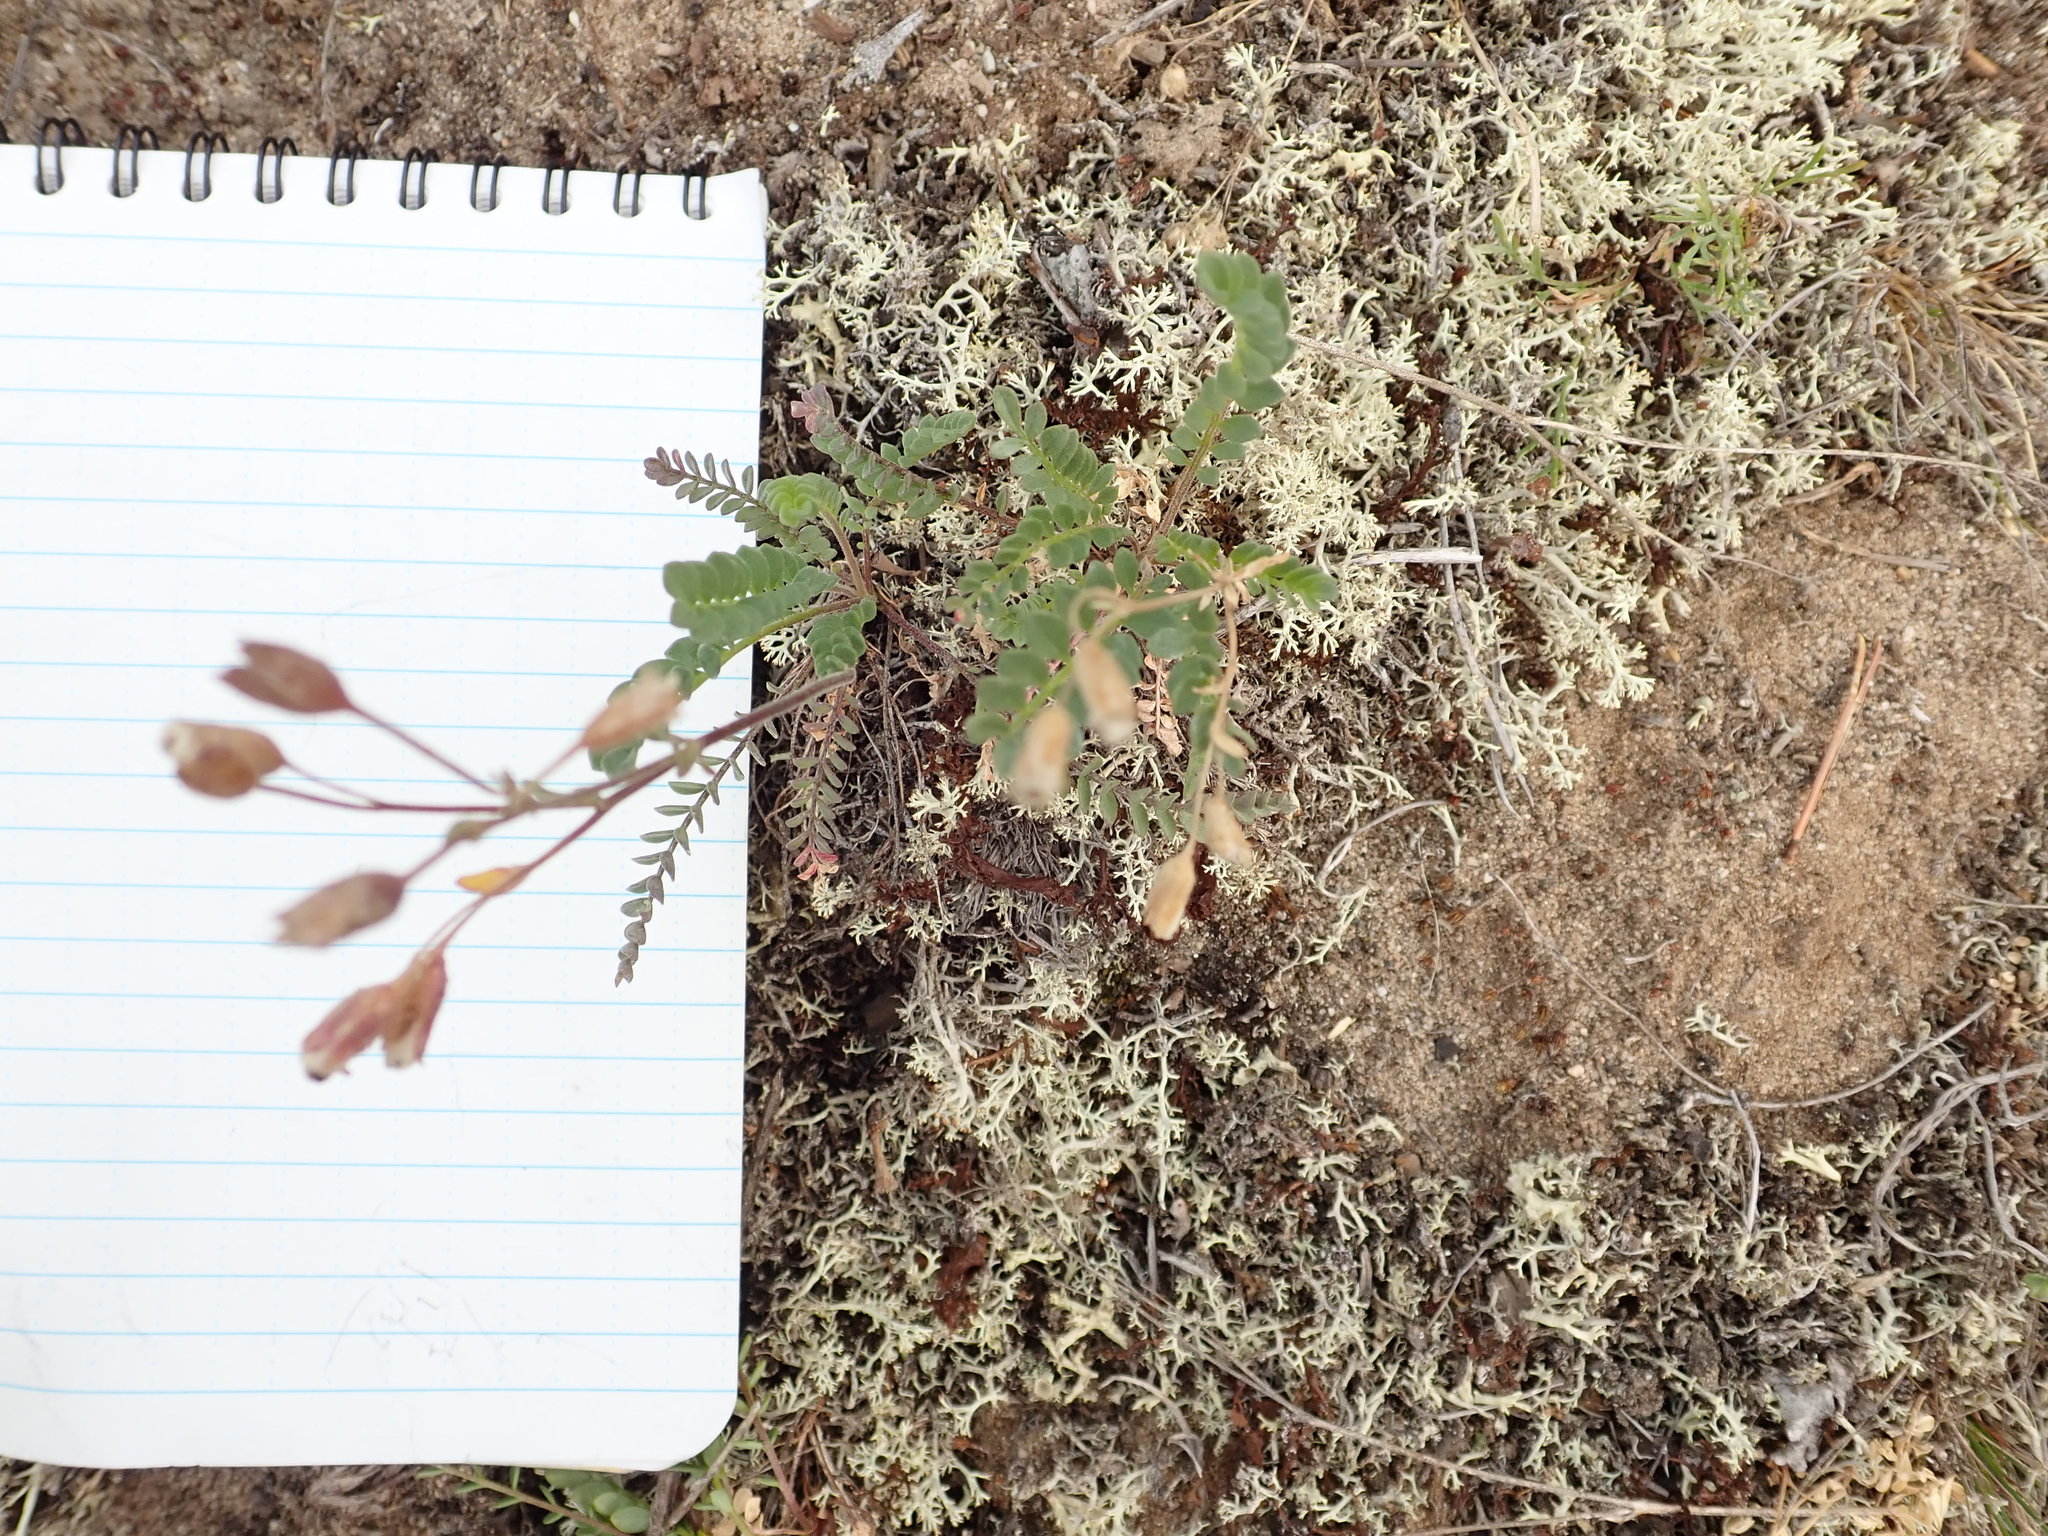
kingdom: Plantae
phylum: Tracheophyta
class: Magnoliopsida
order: Ericales
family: Polemoniaceae
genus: Polemonium
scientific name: Polemonium pulcherrimum
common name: Short jacob's-ladder
